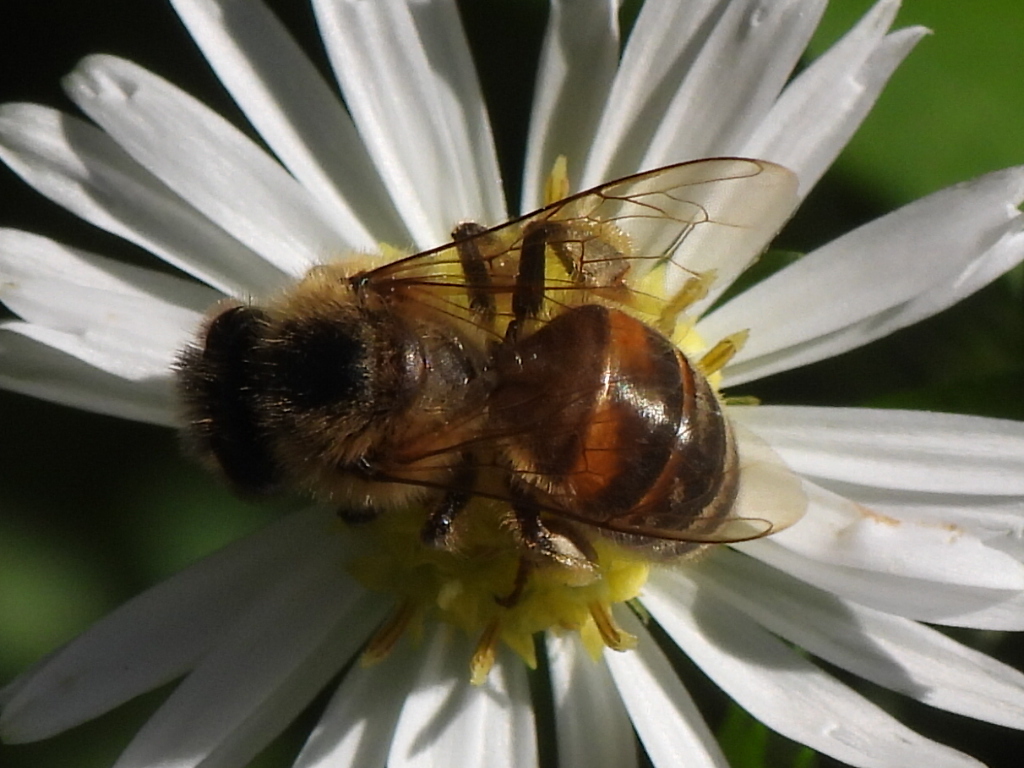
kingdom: Animalia
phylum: Arthropoda
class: Insecta
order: Hymenoptera
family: Apidae
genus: Apis
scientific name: Apis mellifera
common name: Honey bee
